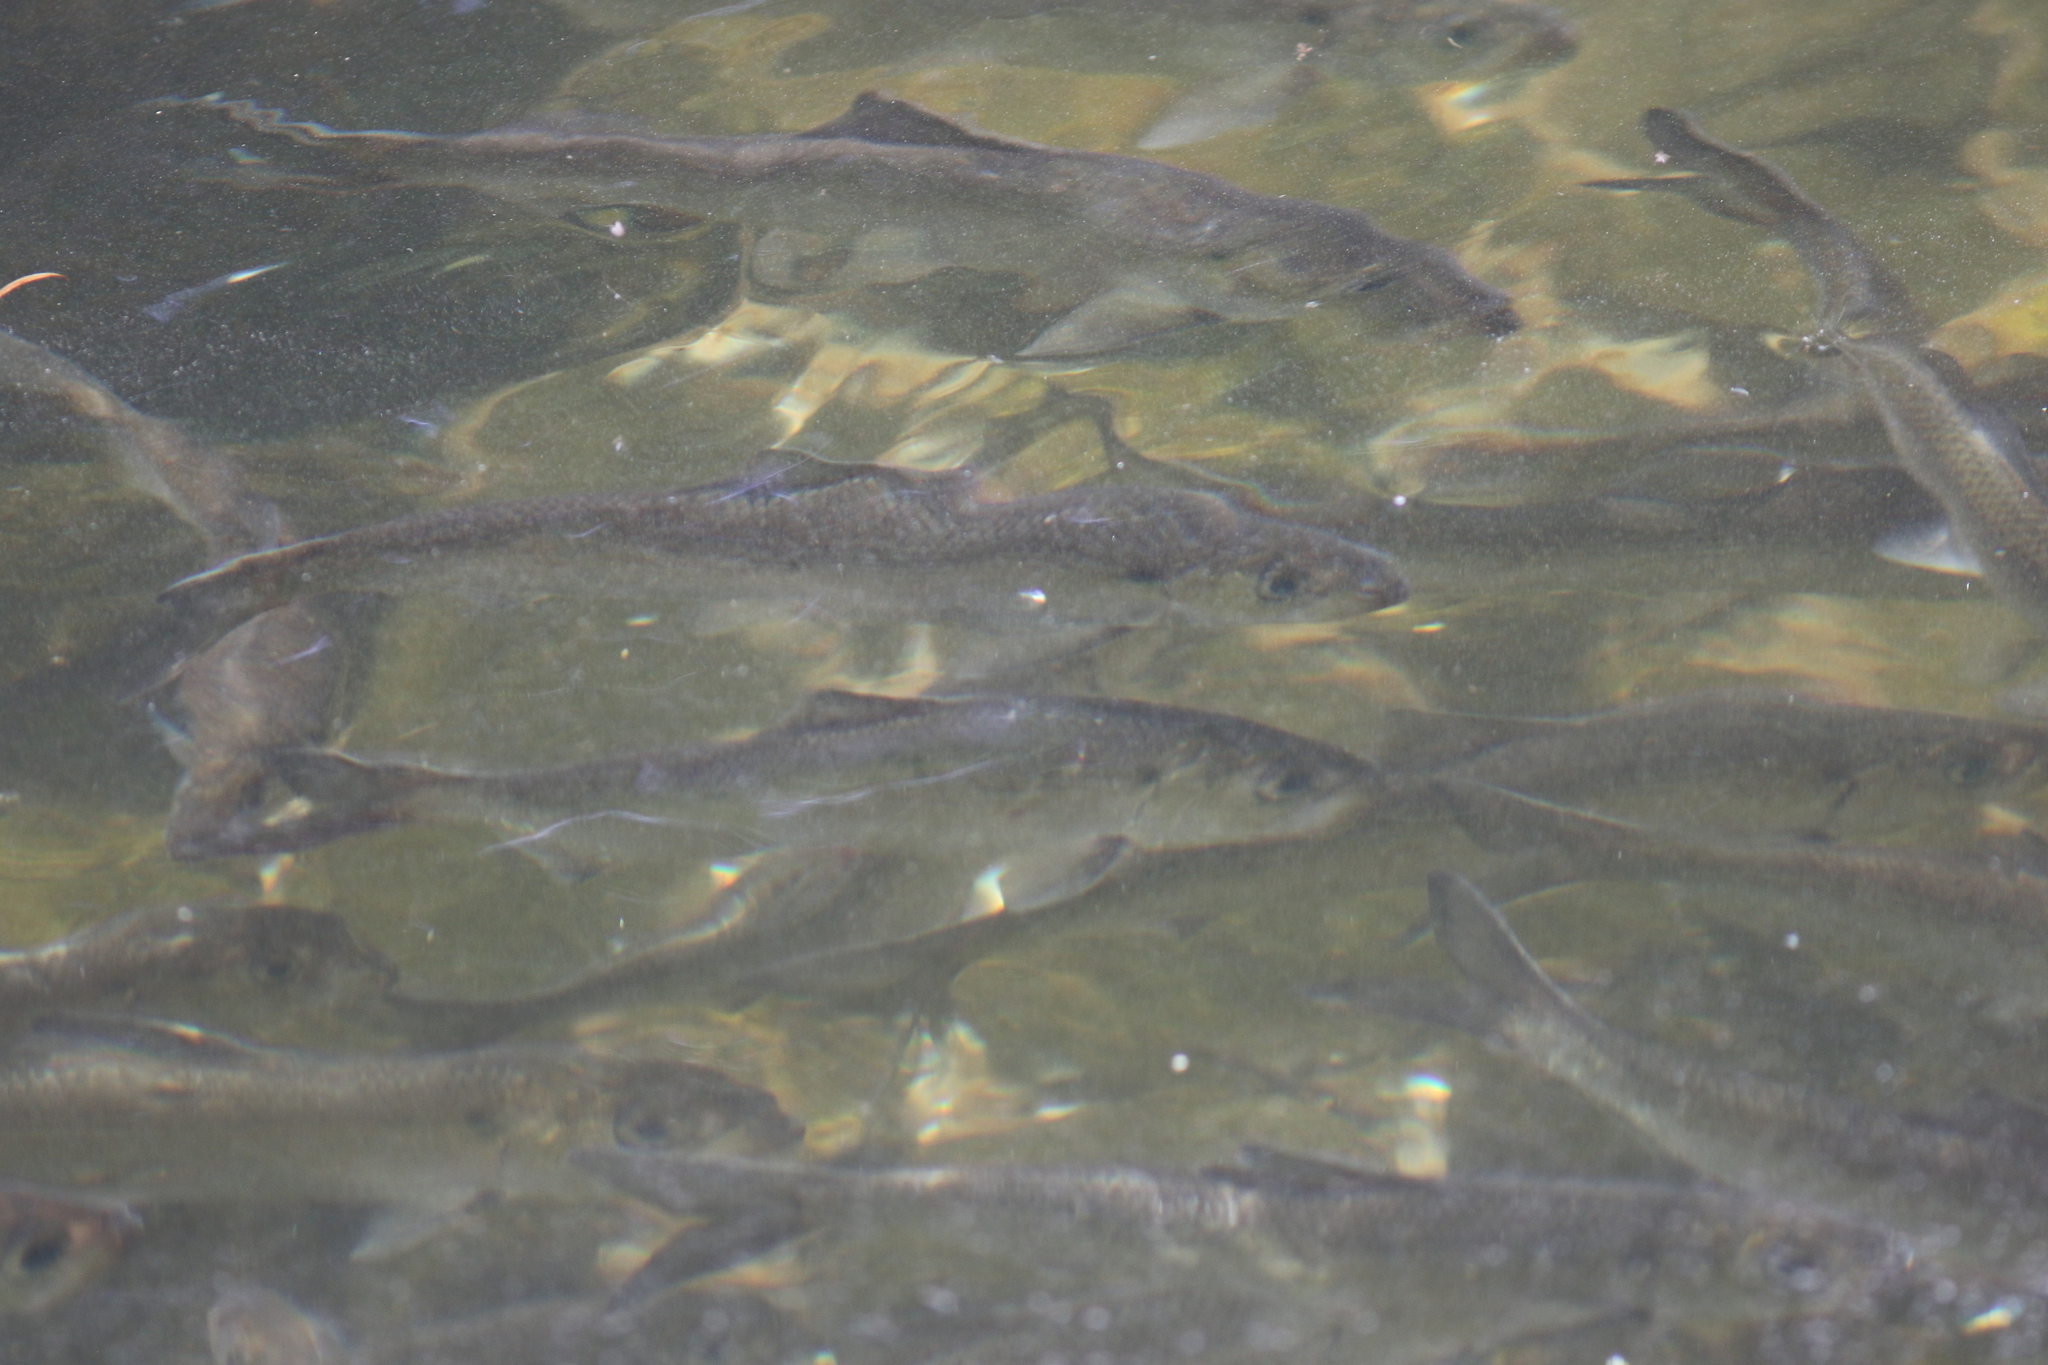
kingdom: Animalia
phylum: Chordata
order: Clupeiformes
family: Clupeidae
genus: Alosa
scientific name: Alosa pseudoharengus
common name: Alewife
